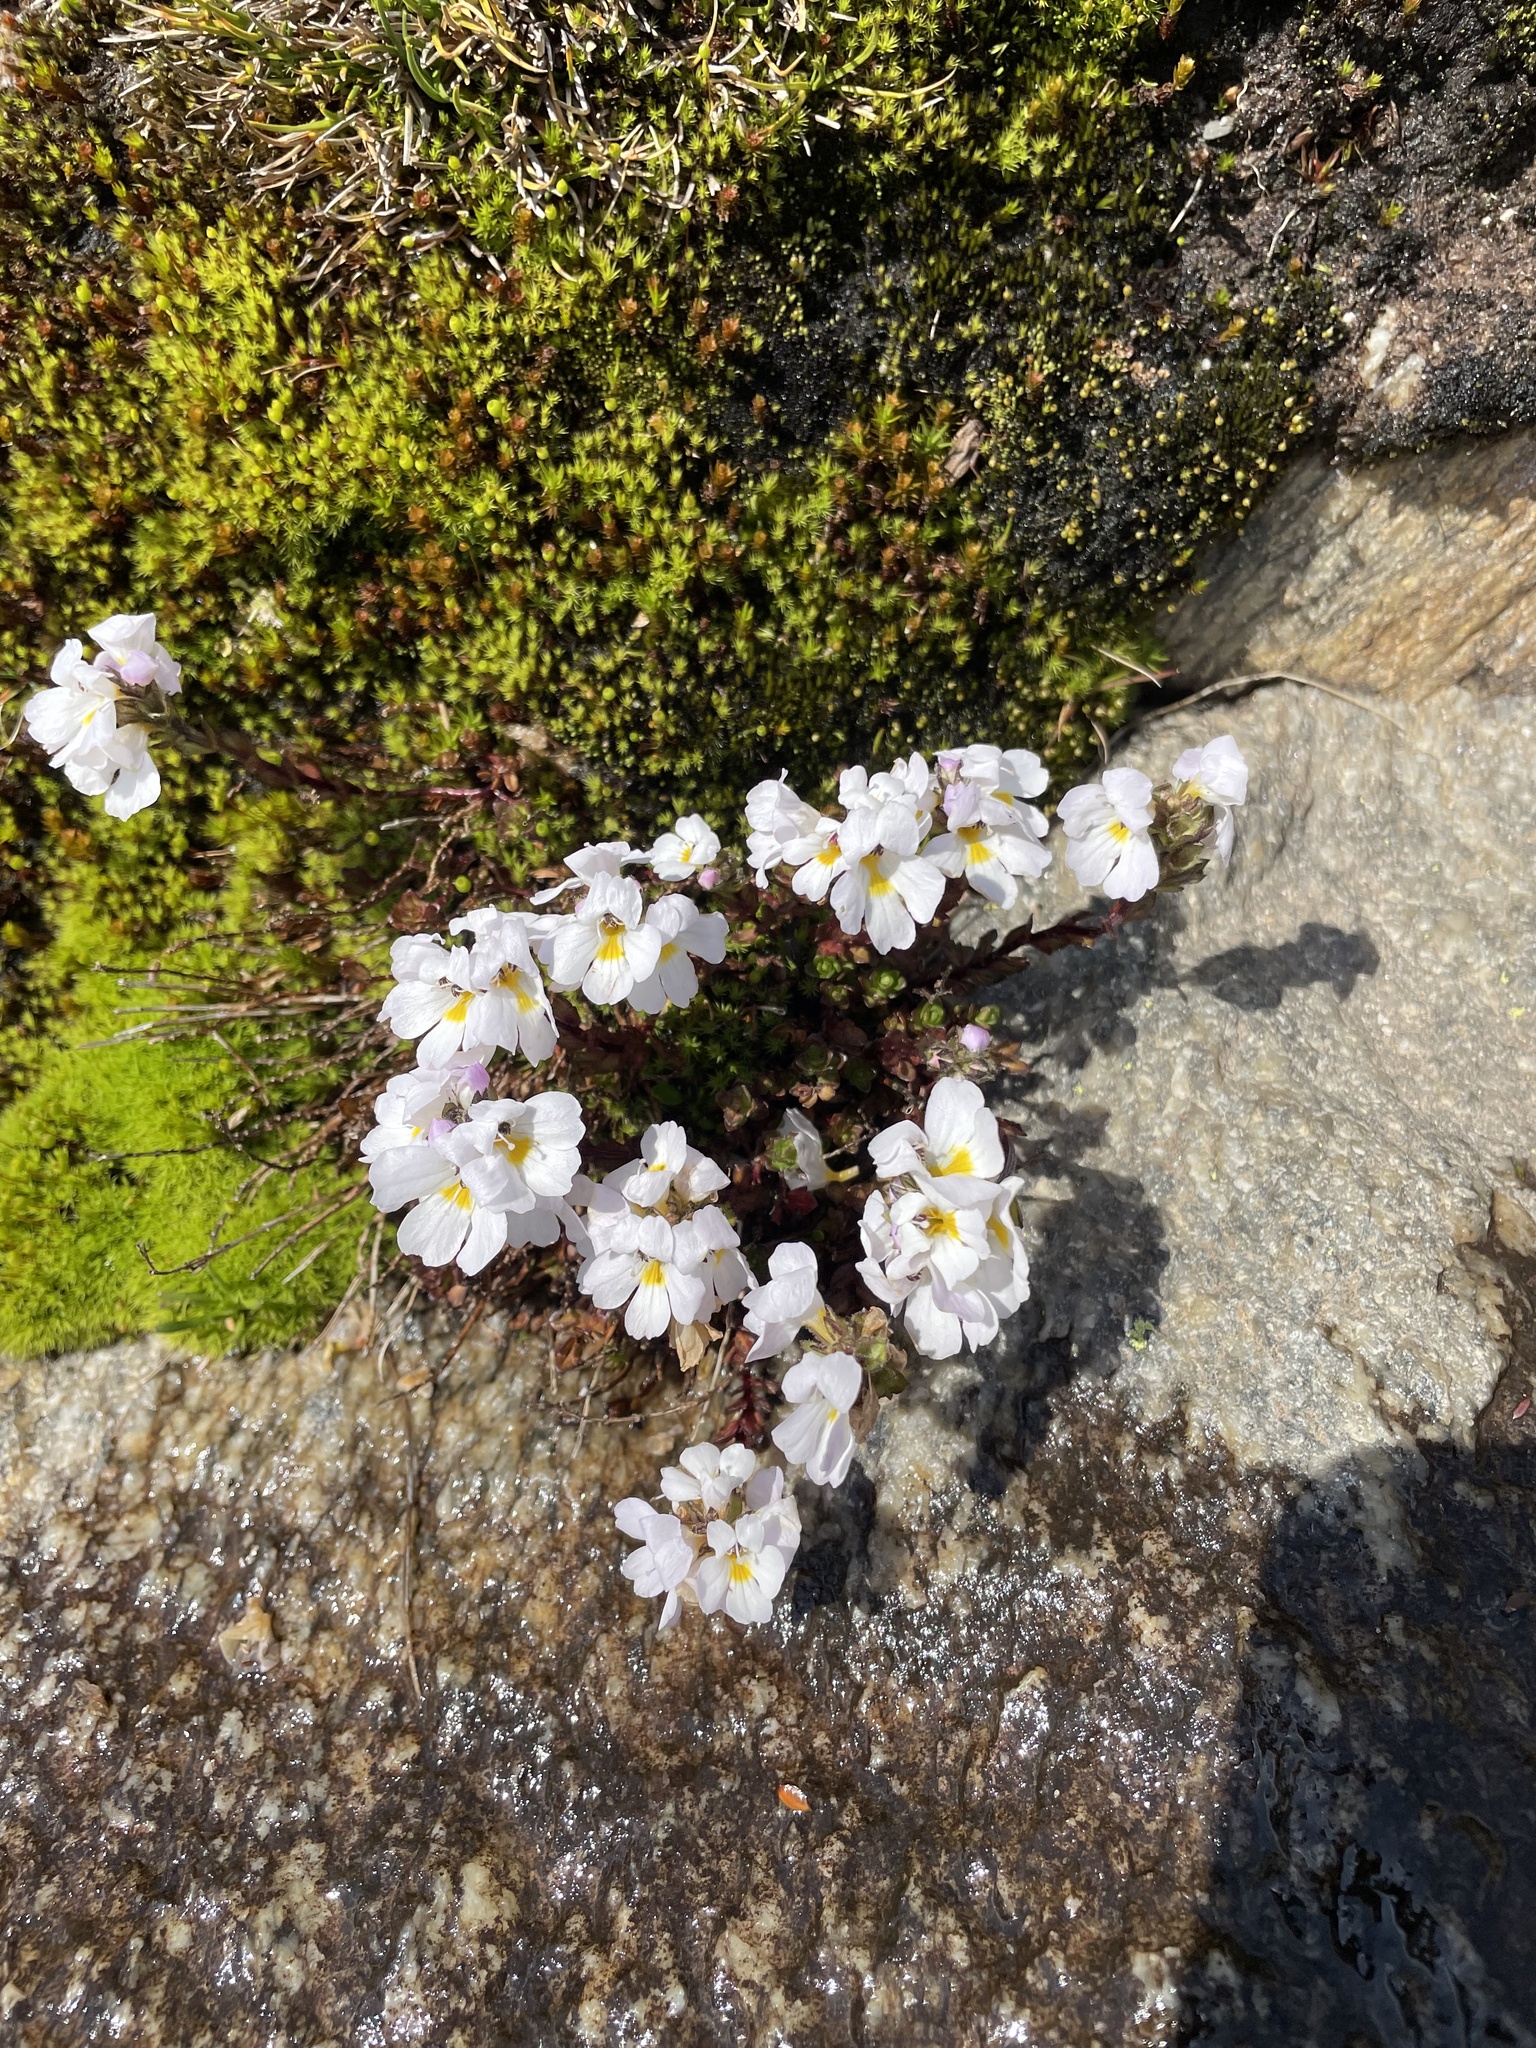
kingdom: Plantae
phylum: Tracheophyta
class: Magnoliopsida
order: Lamiales
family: Orobanchaceae
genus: Euphrasia
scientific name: Euphrasia collina
